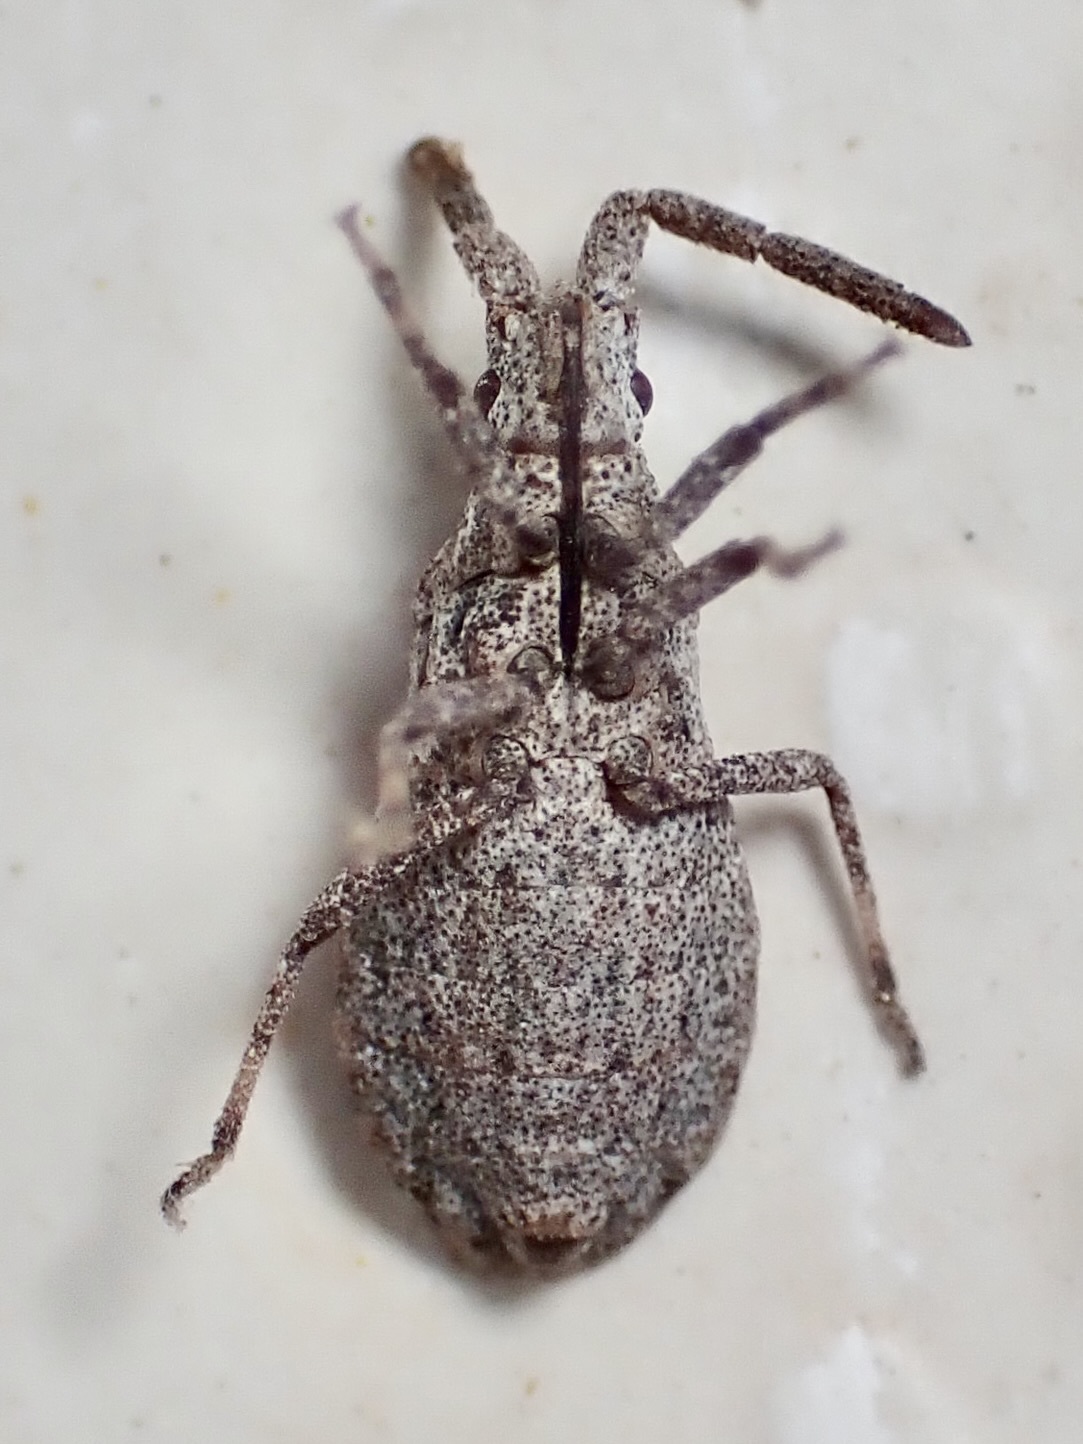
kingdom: Animalia
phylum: Arthropoda
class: Insecta
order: Hemiptera
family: Coreidae
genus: Scolopocerus
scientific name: Scolopocerus secundarius
